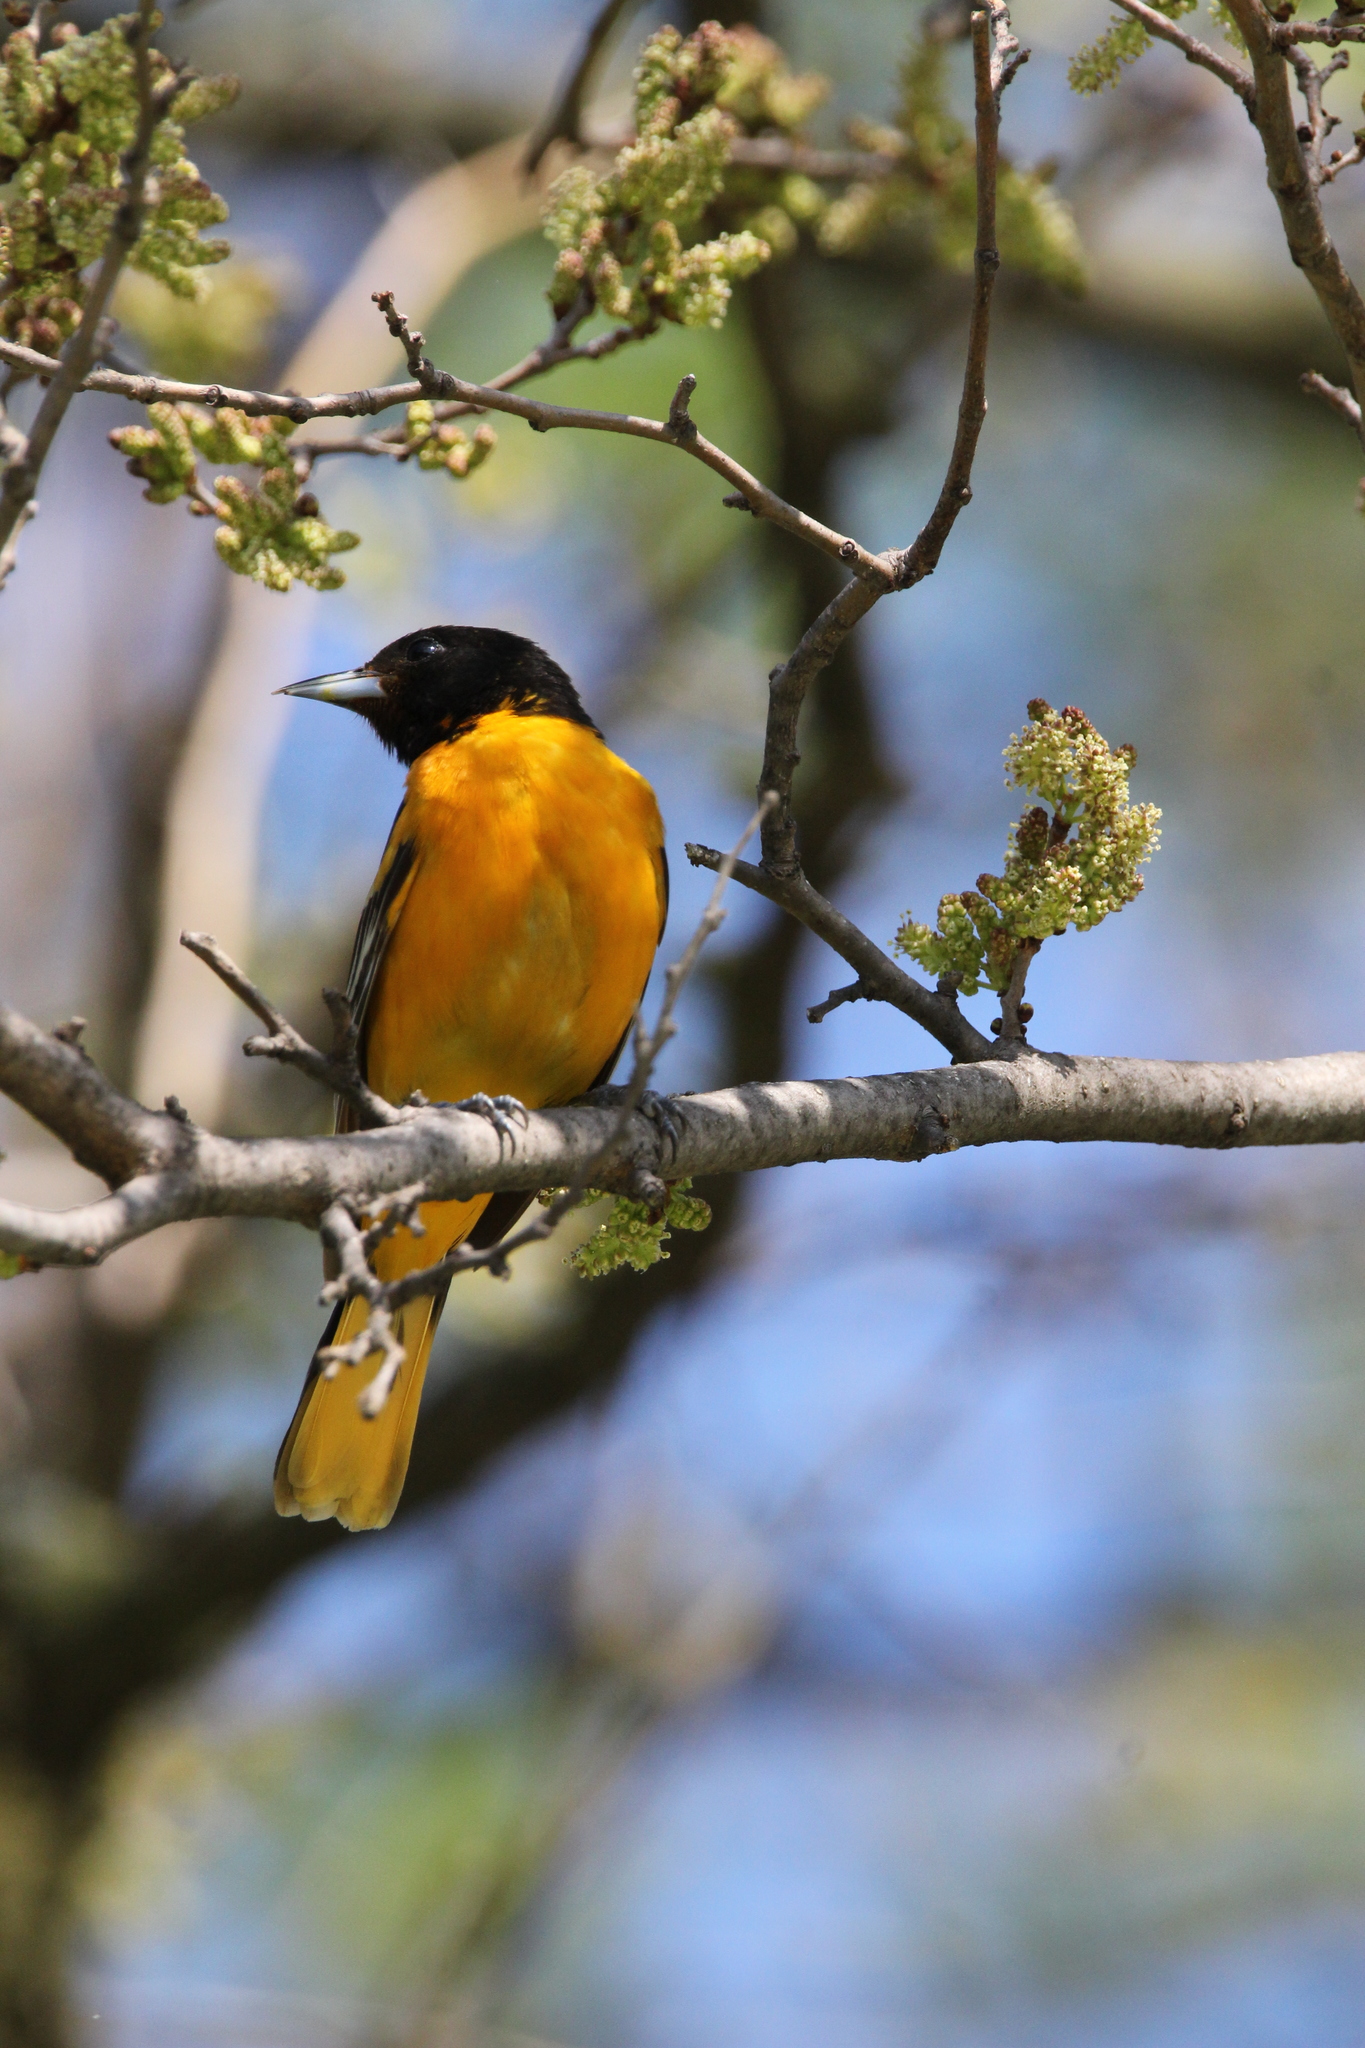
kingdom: Animalia
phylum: Chordata
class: Aves
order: Passeriformes
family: Icteridae
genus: Icterus
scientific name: Icterus galbula
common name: Baltimore oriole
